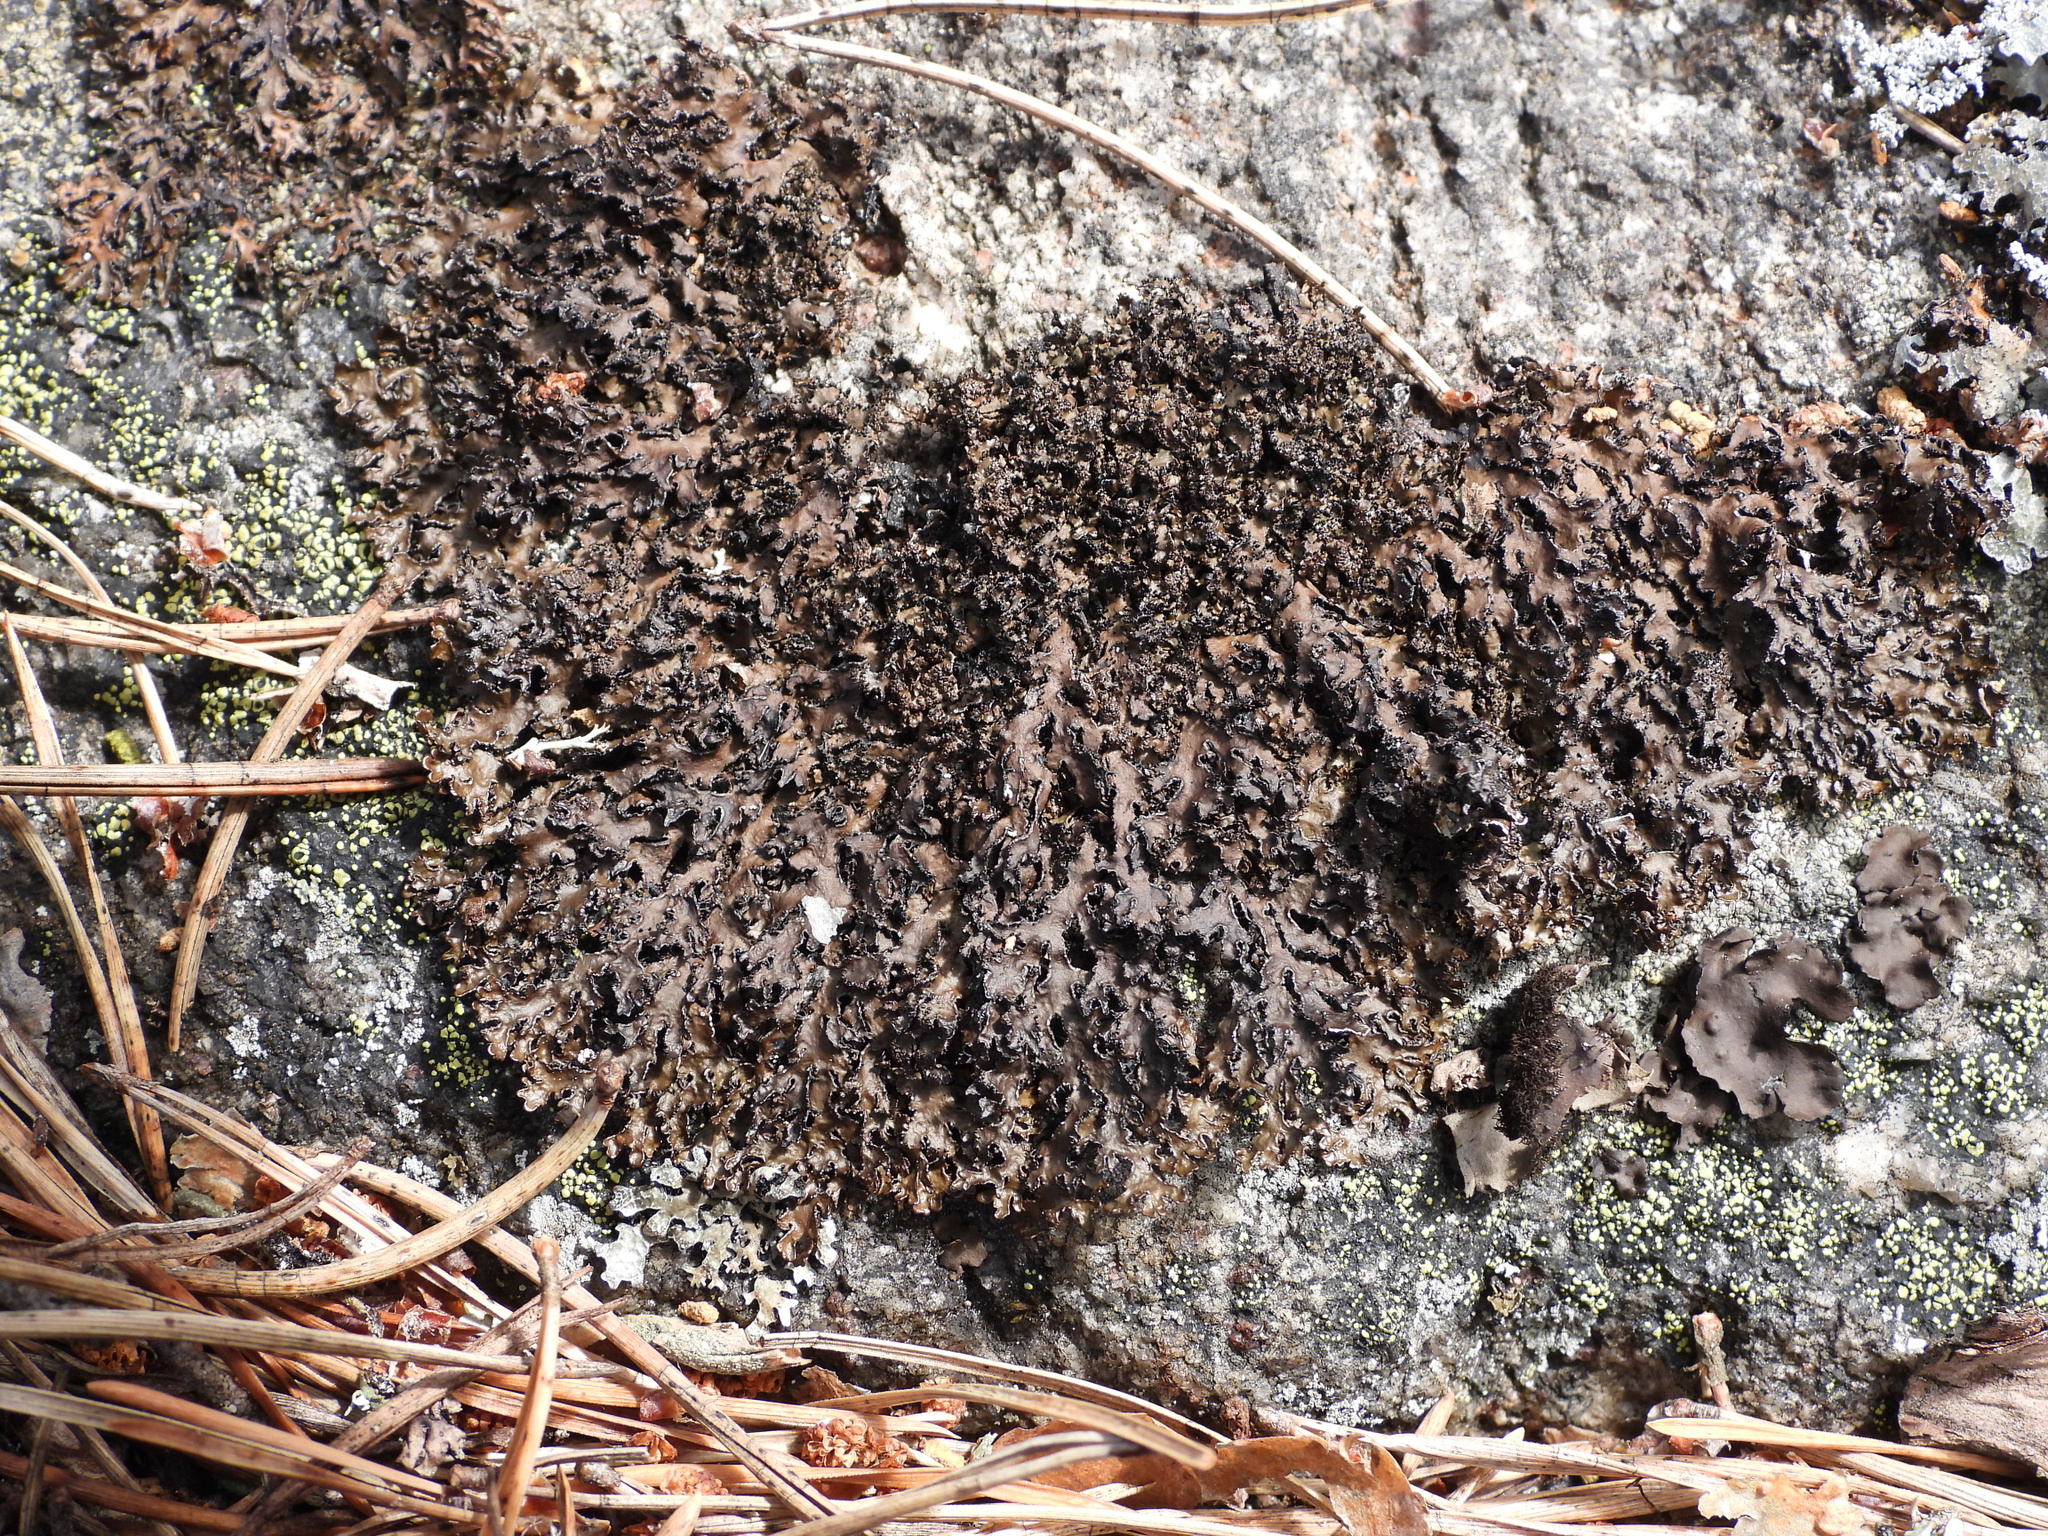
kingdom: Fungi
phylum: Ascomycota
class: Lecanoromycetes
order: Lecanorales
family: Parmeliaceae
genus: Melanelia
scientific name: Melanelia hepatizon
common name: Rimmed camouflage lichen
